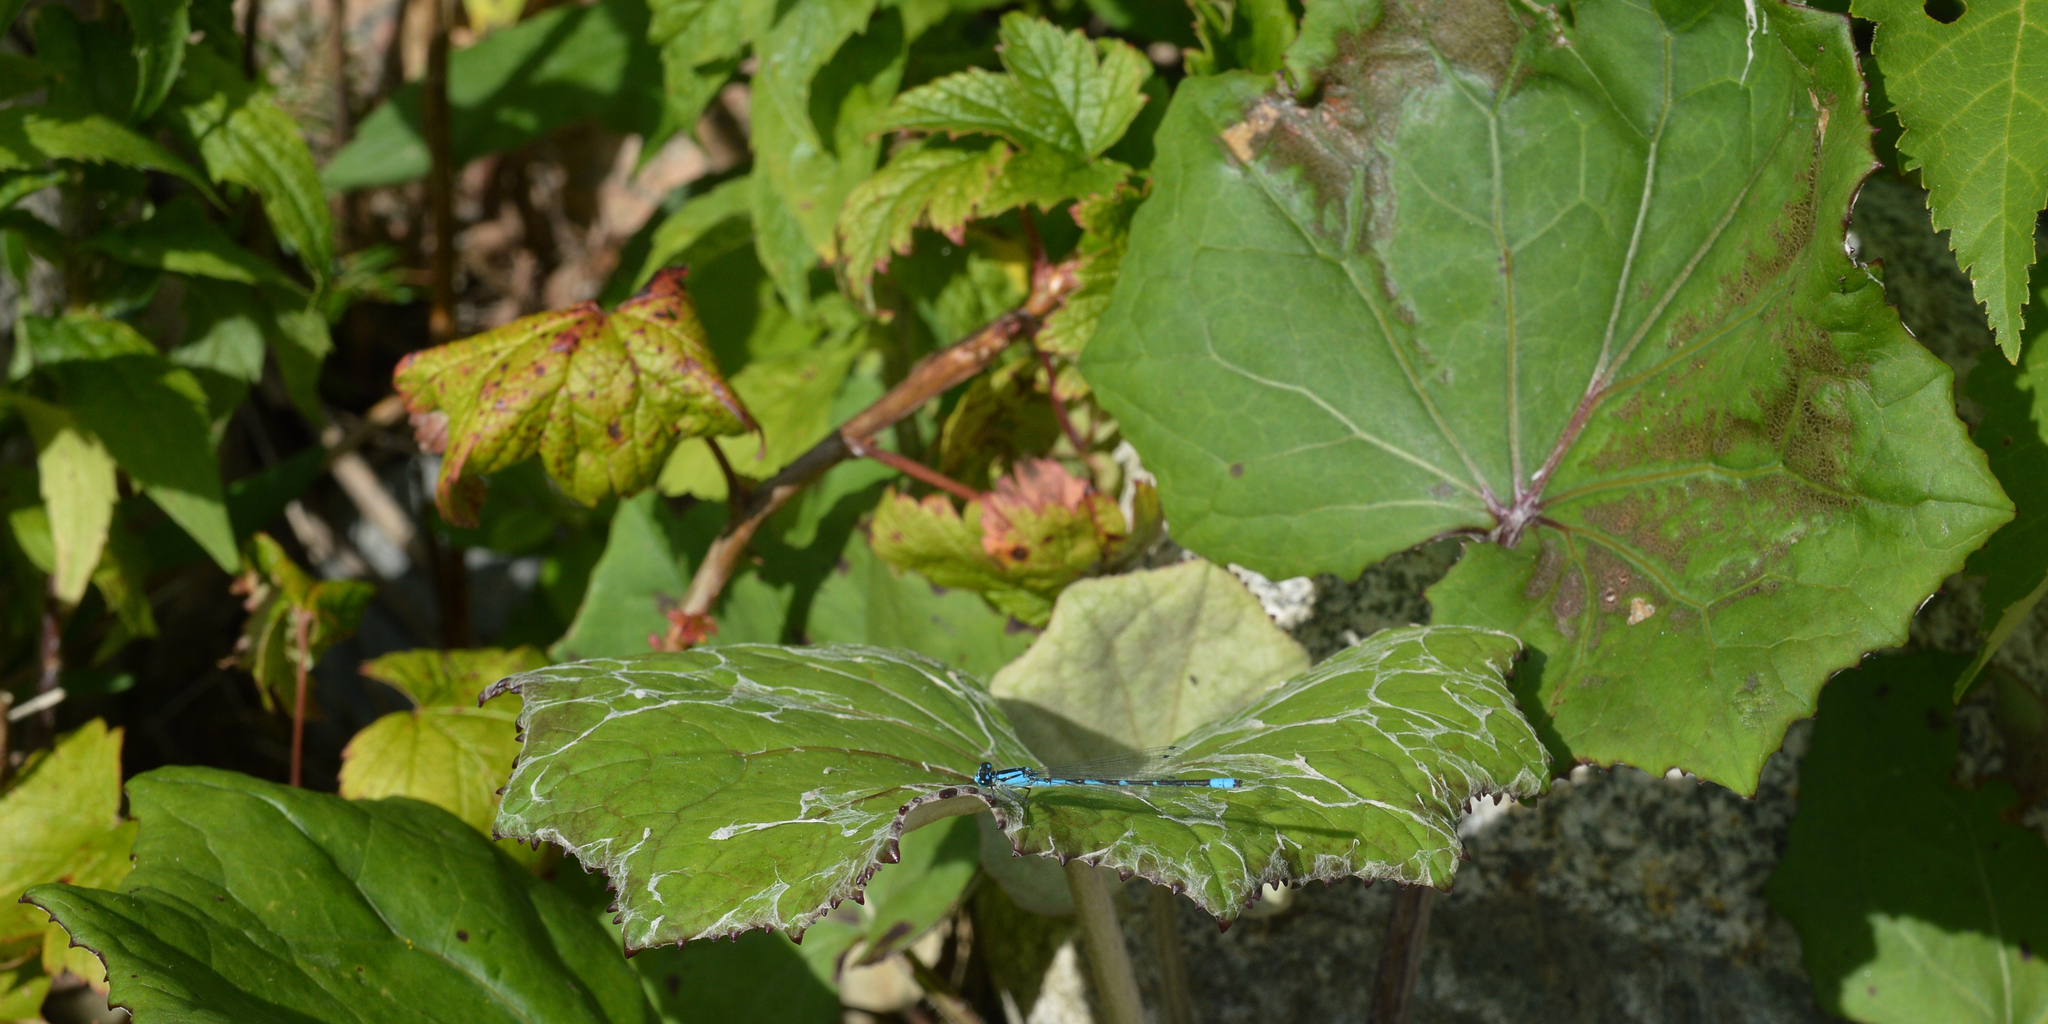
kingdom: Plantae
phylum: Tracheophyta
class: Magnoliopsida
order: Asterales
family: Asteraceae
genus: Tussilago
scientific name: Tussilago farfara
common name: Coltsfoot
